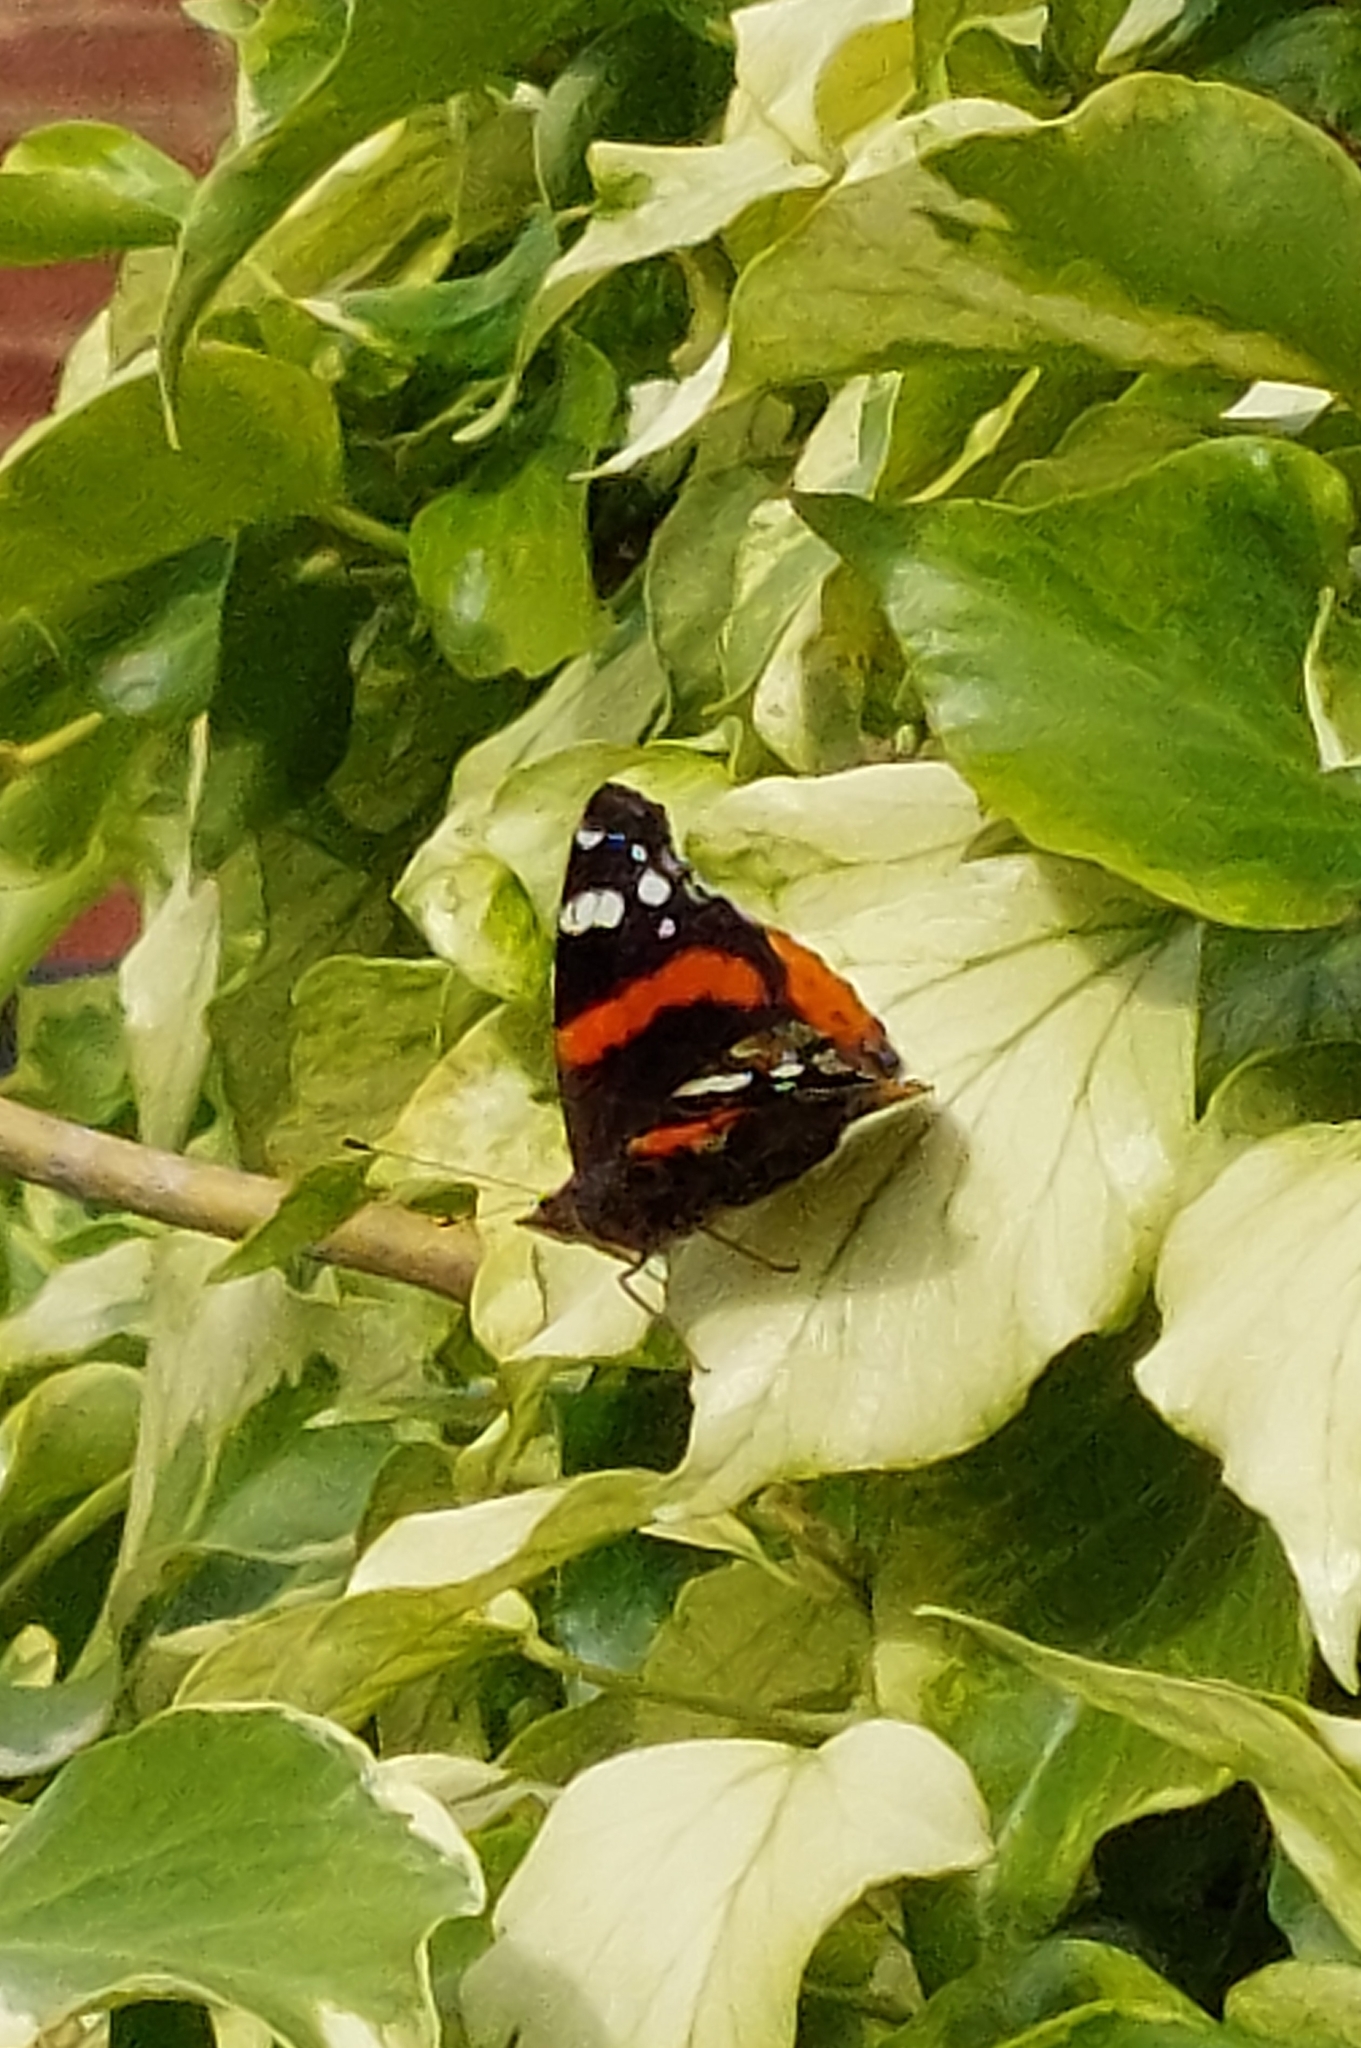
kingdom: Animalia
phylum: Arthropoda
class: Insecta
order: Lepidoptera
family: Nymphalidae
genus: Vanessa
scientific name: Vanessa atalanta
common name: Red admiral
